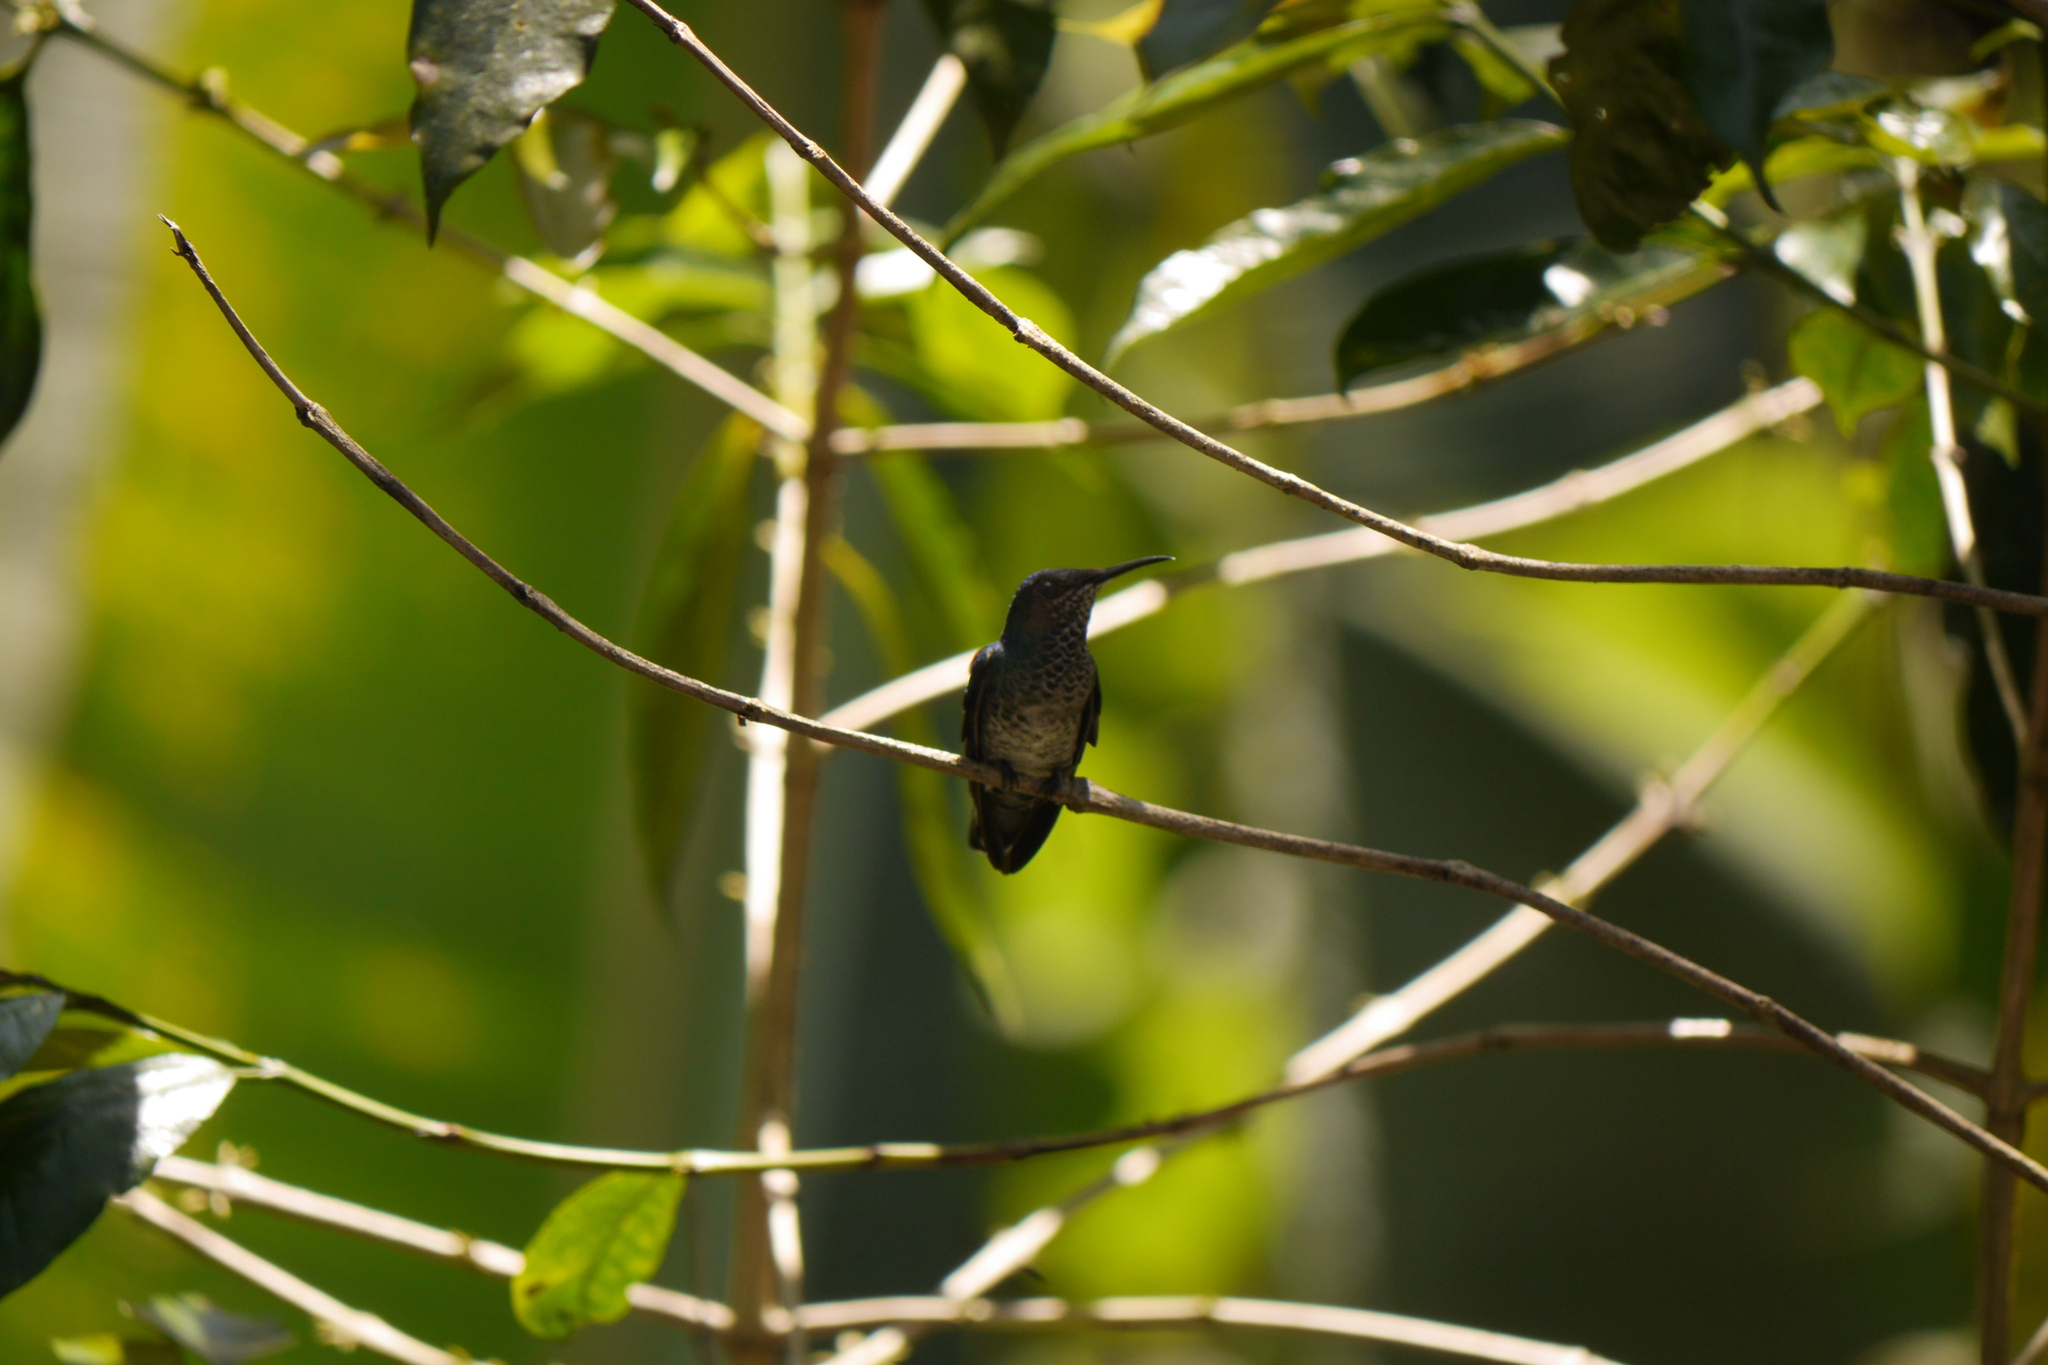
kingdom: Animalia
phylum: Chordata
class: Aves
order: Apodiformes
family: Trochilidae
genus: Florisuga
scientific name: Florisuga mellivora
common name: White-necked jacobin
